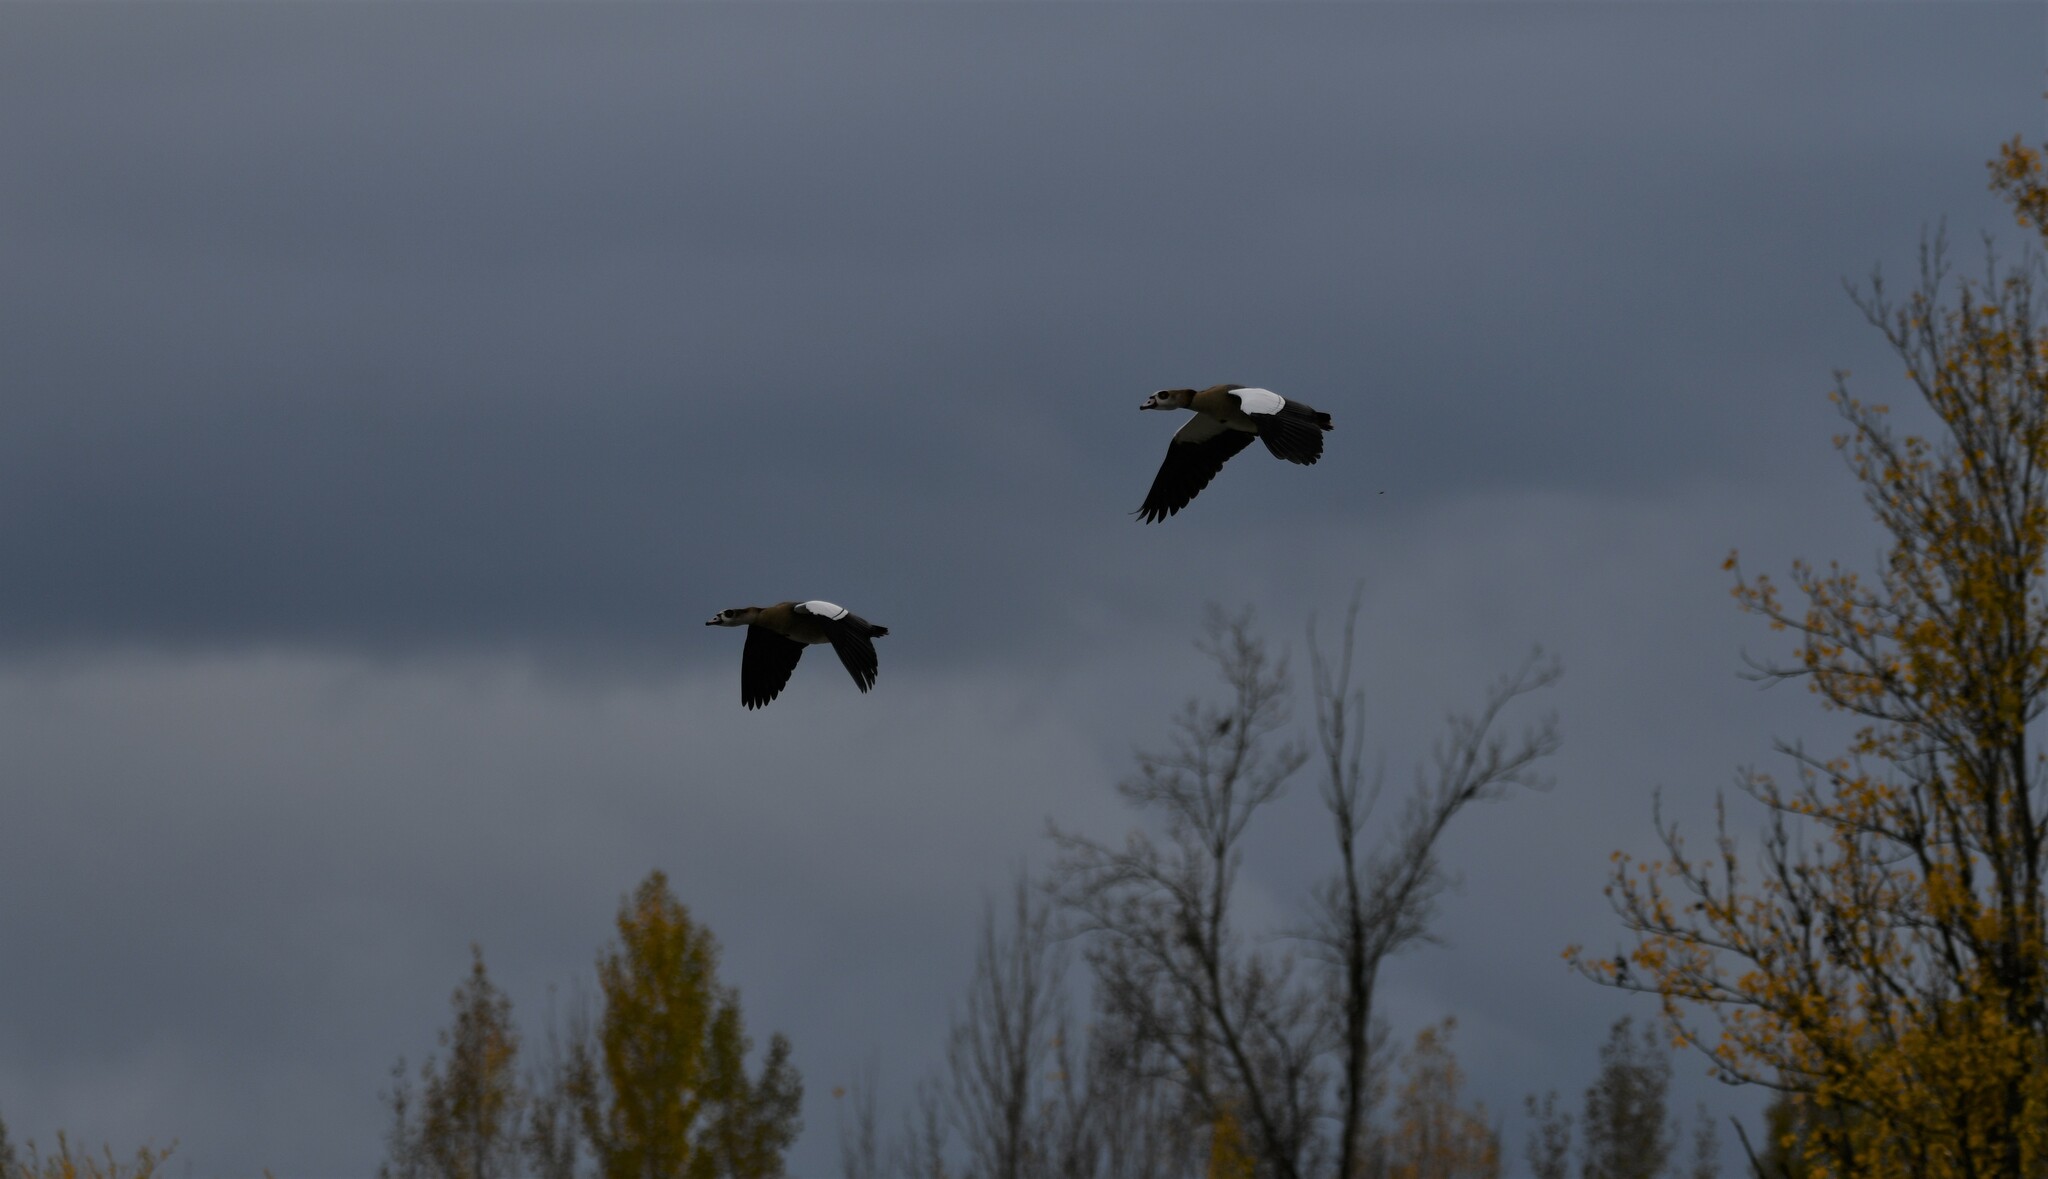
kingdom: Animalia
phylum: Chordata
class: Aves
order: Anseriformes
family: Anatidae
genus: Alopochen
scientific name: Alopochen aegyptiaca
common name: Egyptian goose
